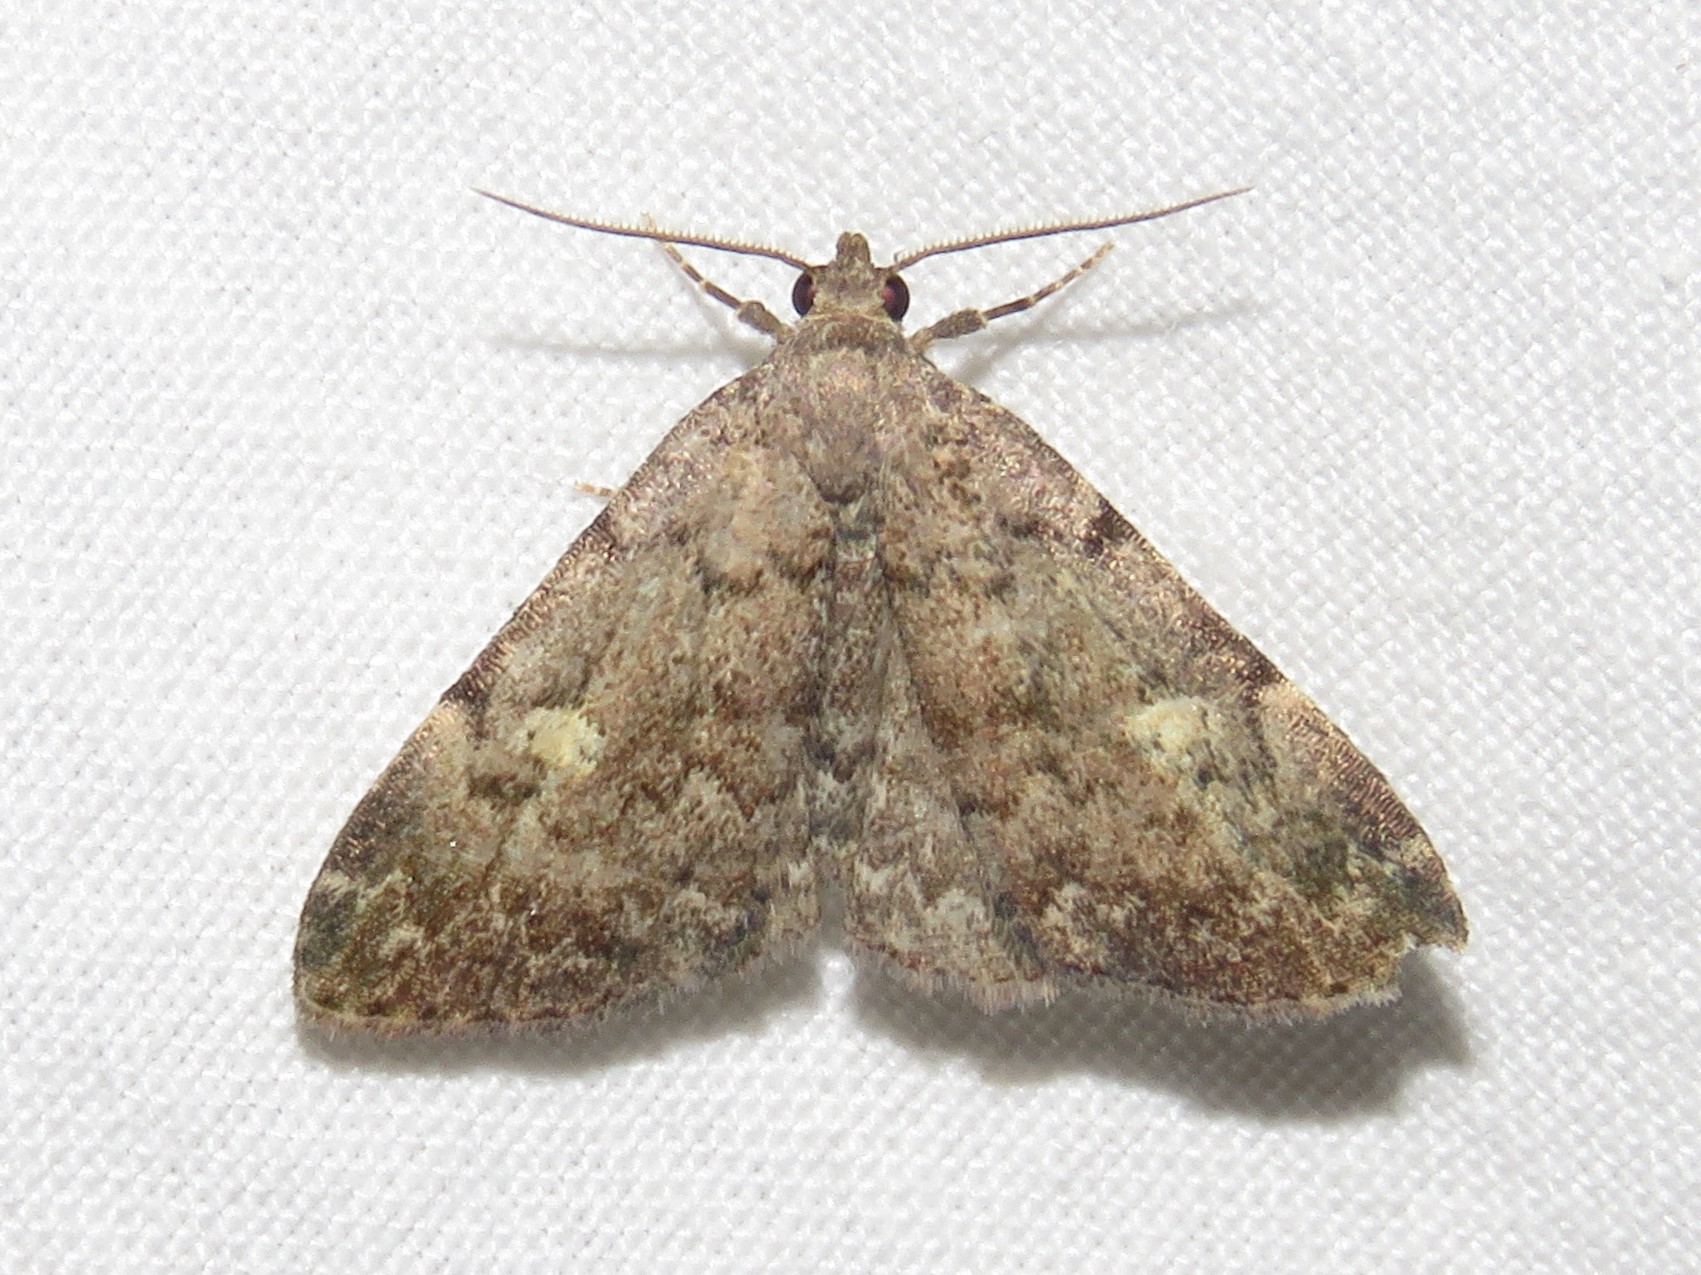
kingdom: Animalia
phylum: Arthropoda
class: Insecta
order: Lepidoptera
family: Erebidae
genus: Idia
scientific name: Idia aemula
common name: Common idia moth
